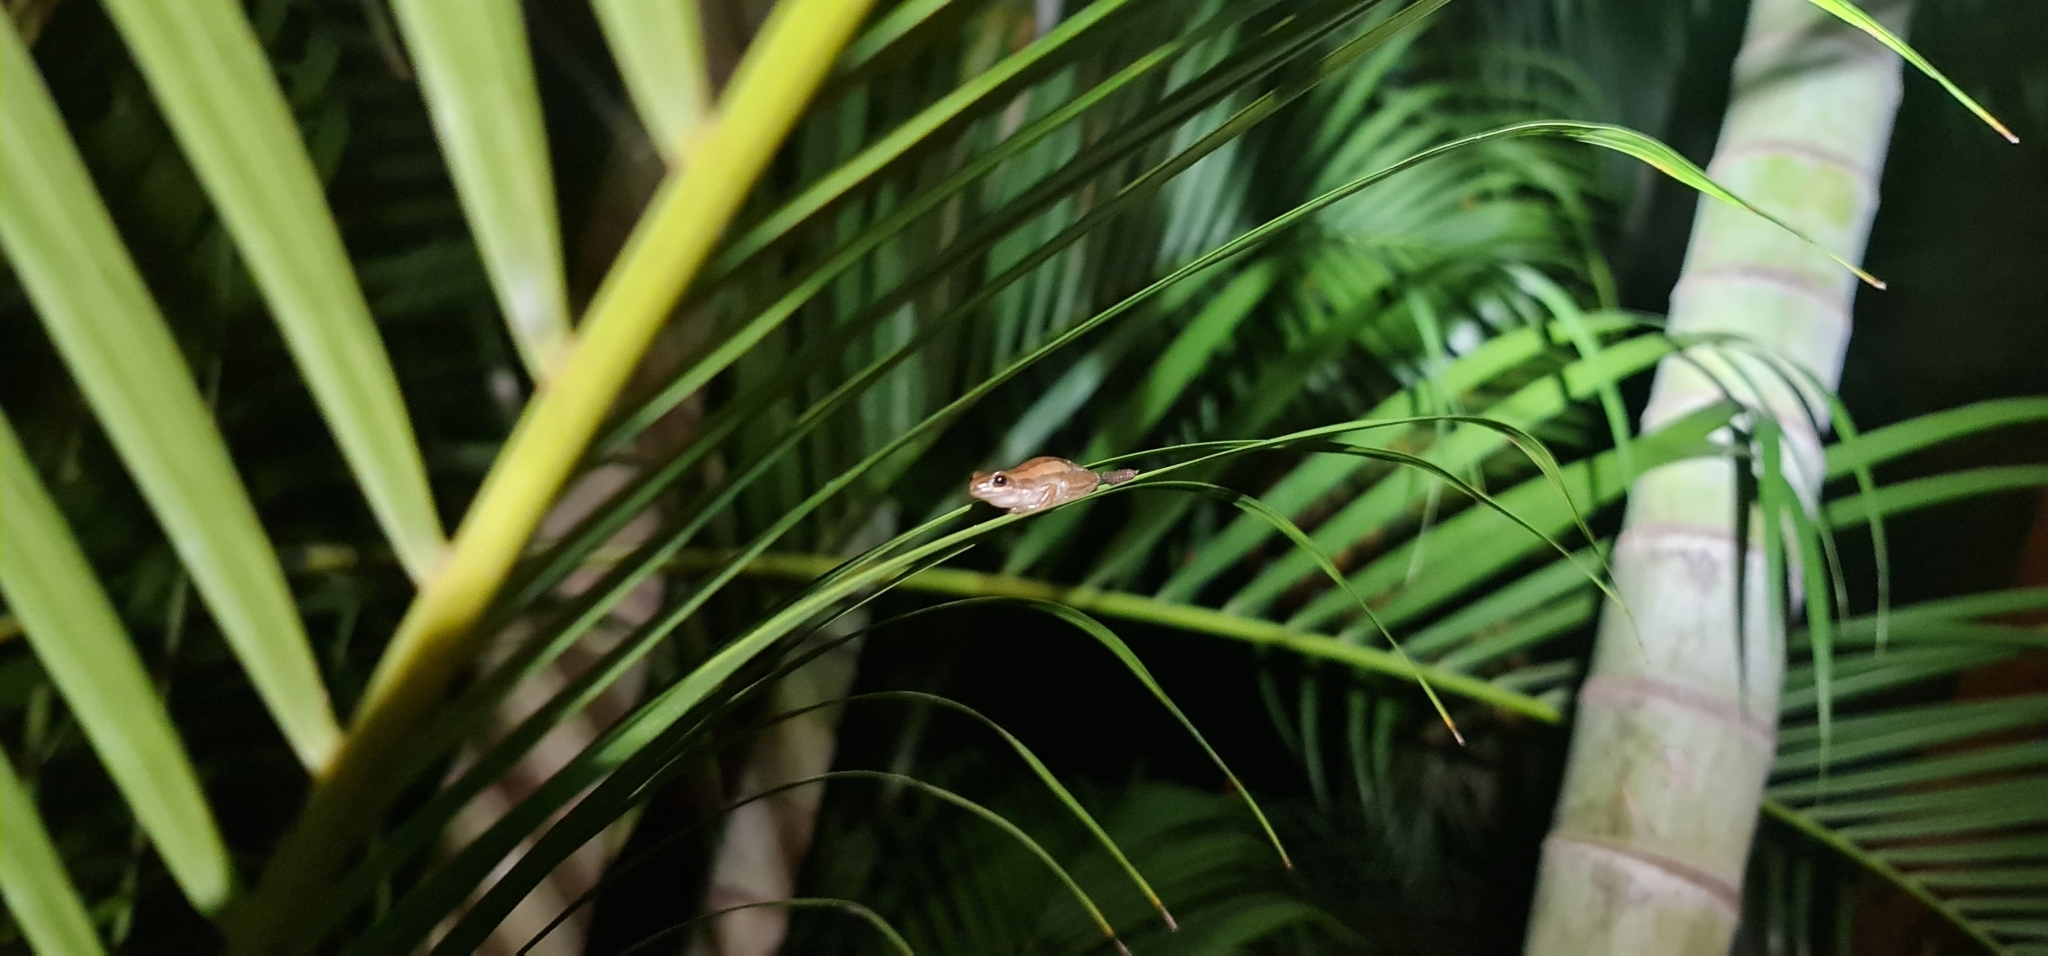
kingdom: Animalia
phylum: Chordata
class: Amphibia
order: Anura
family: Pelodryadidae
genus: Litoria
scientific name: Litoria rubella
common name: Desert tree frog
